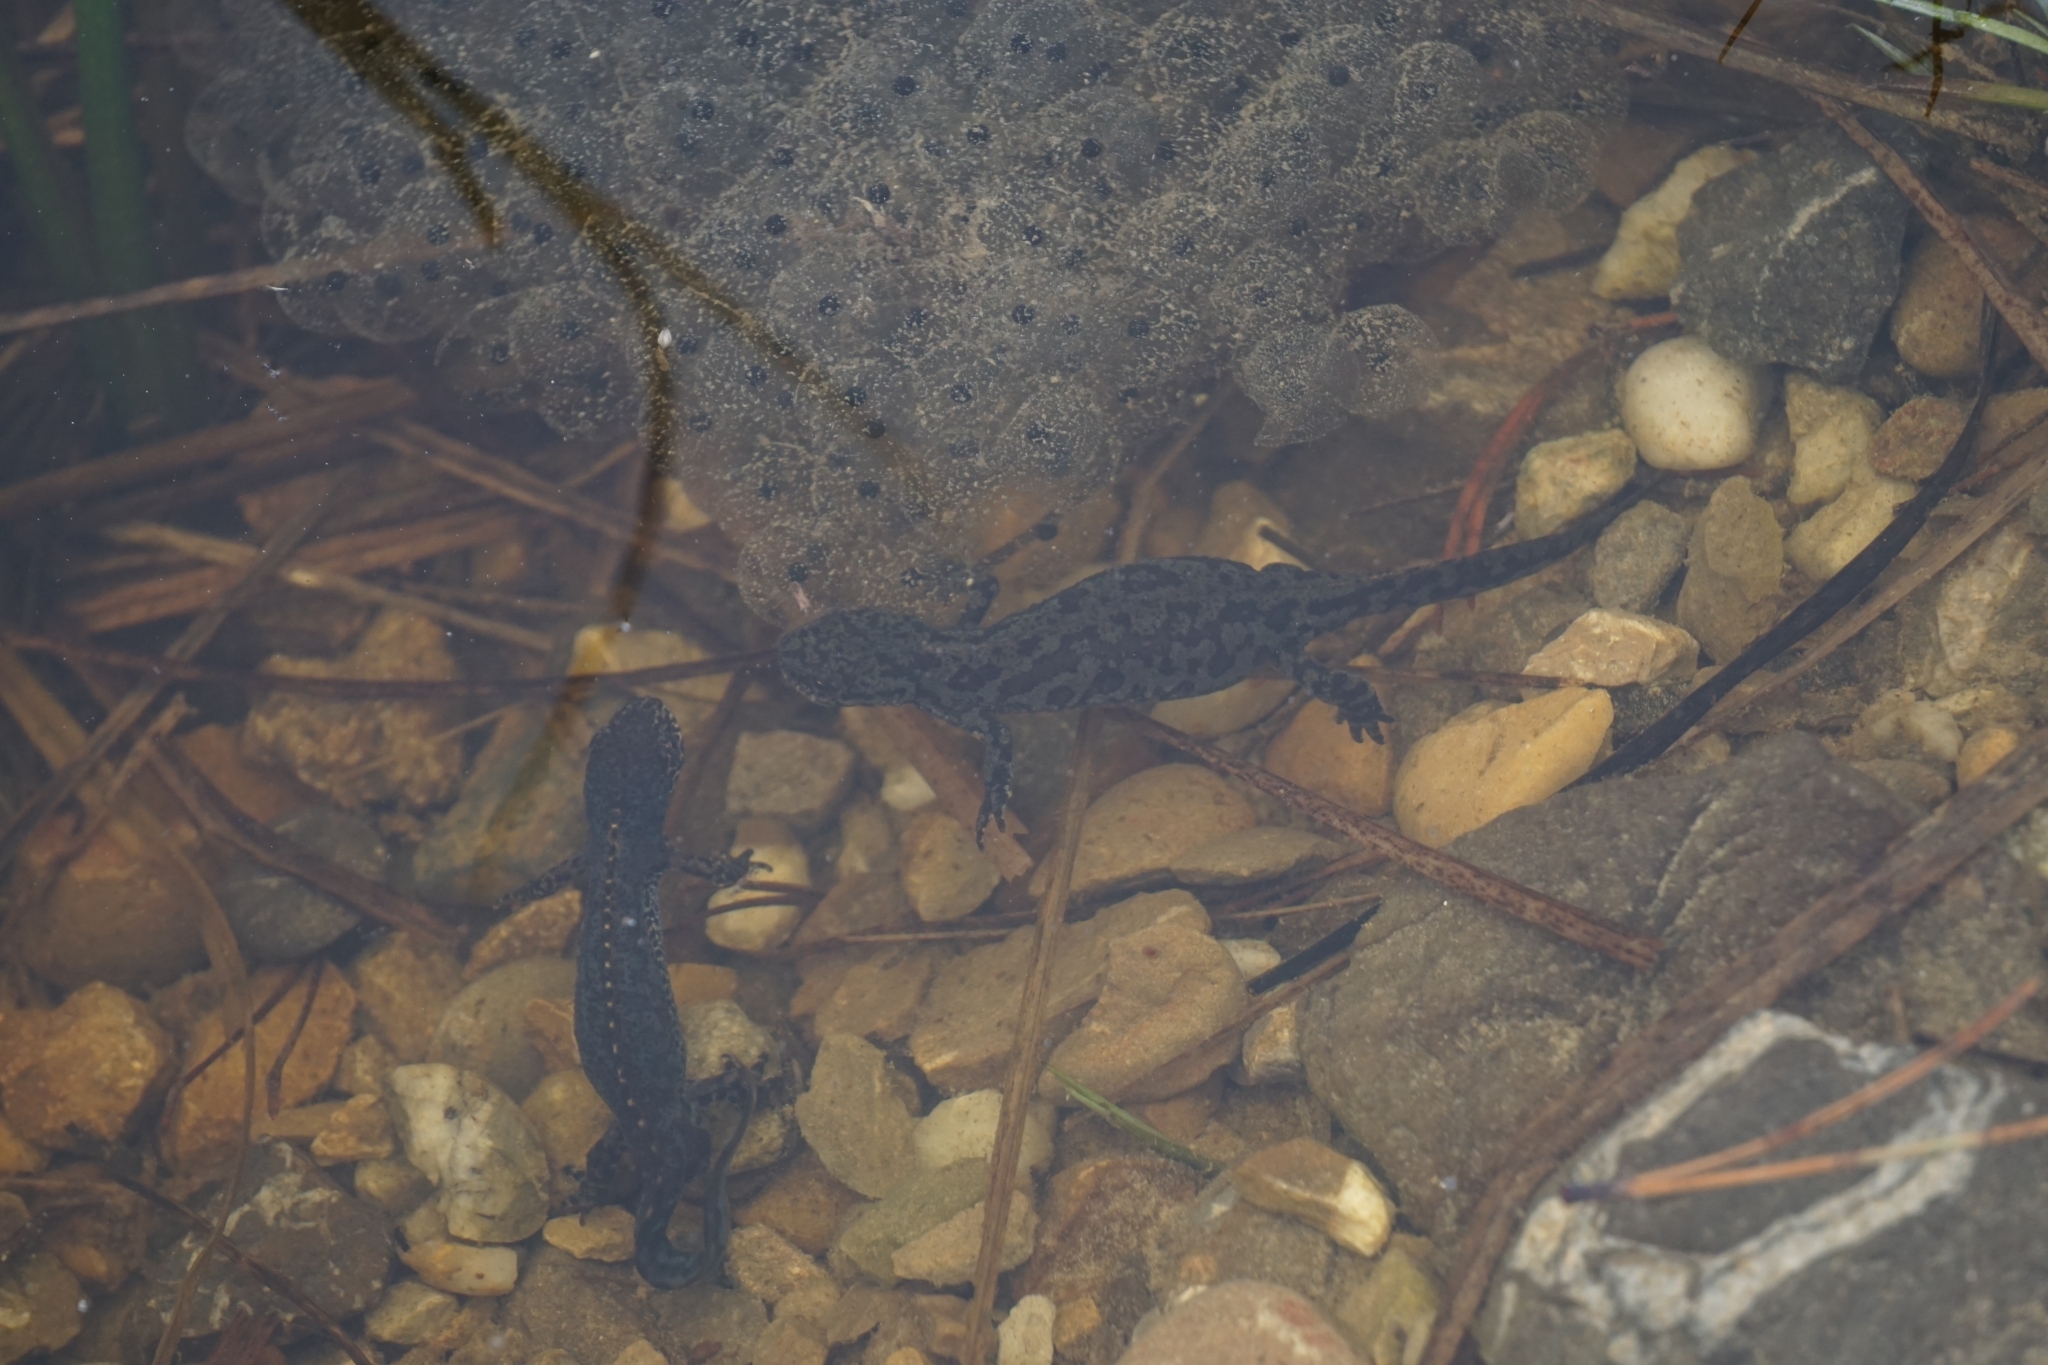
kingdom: Animalia
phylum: Chordata
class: Amphibia
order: Caudata
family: Salamandridae
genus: Ichthyosaura
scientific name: Ichthyosaura alpestris
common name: Alpine newt
